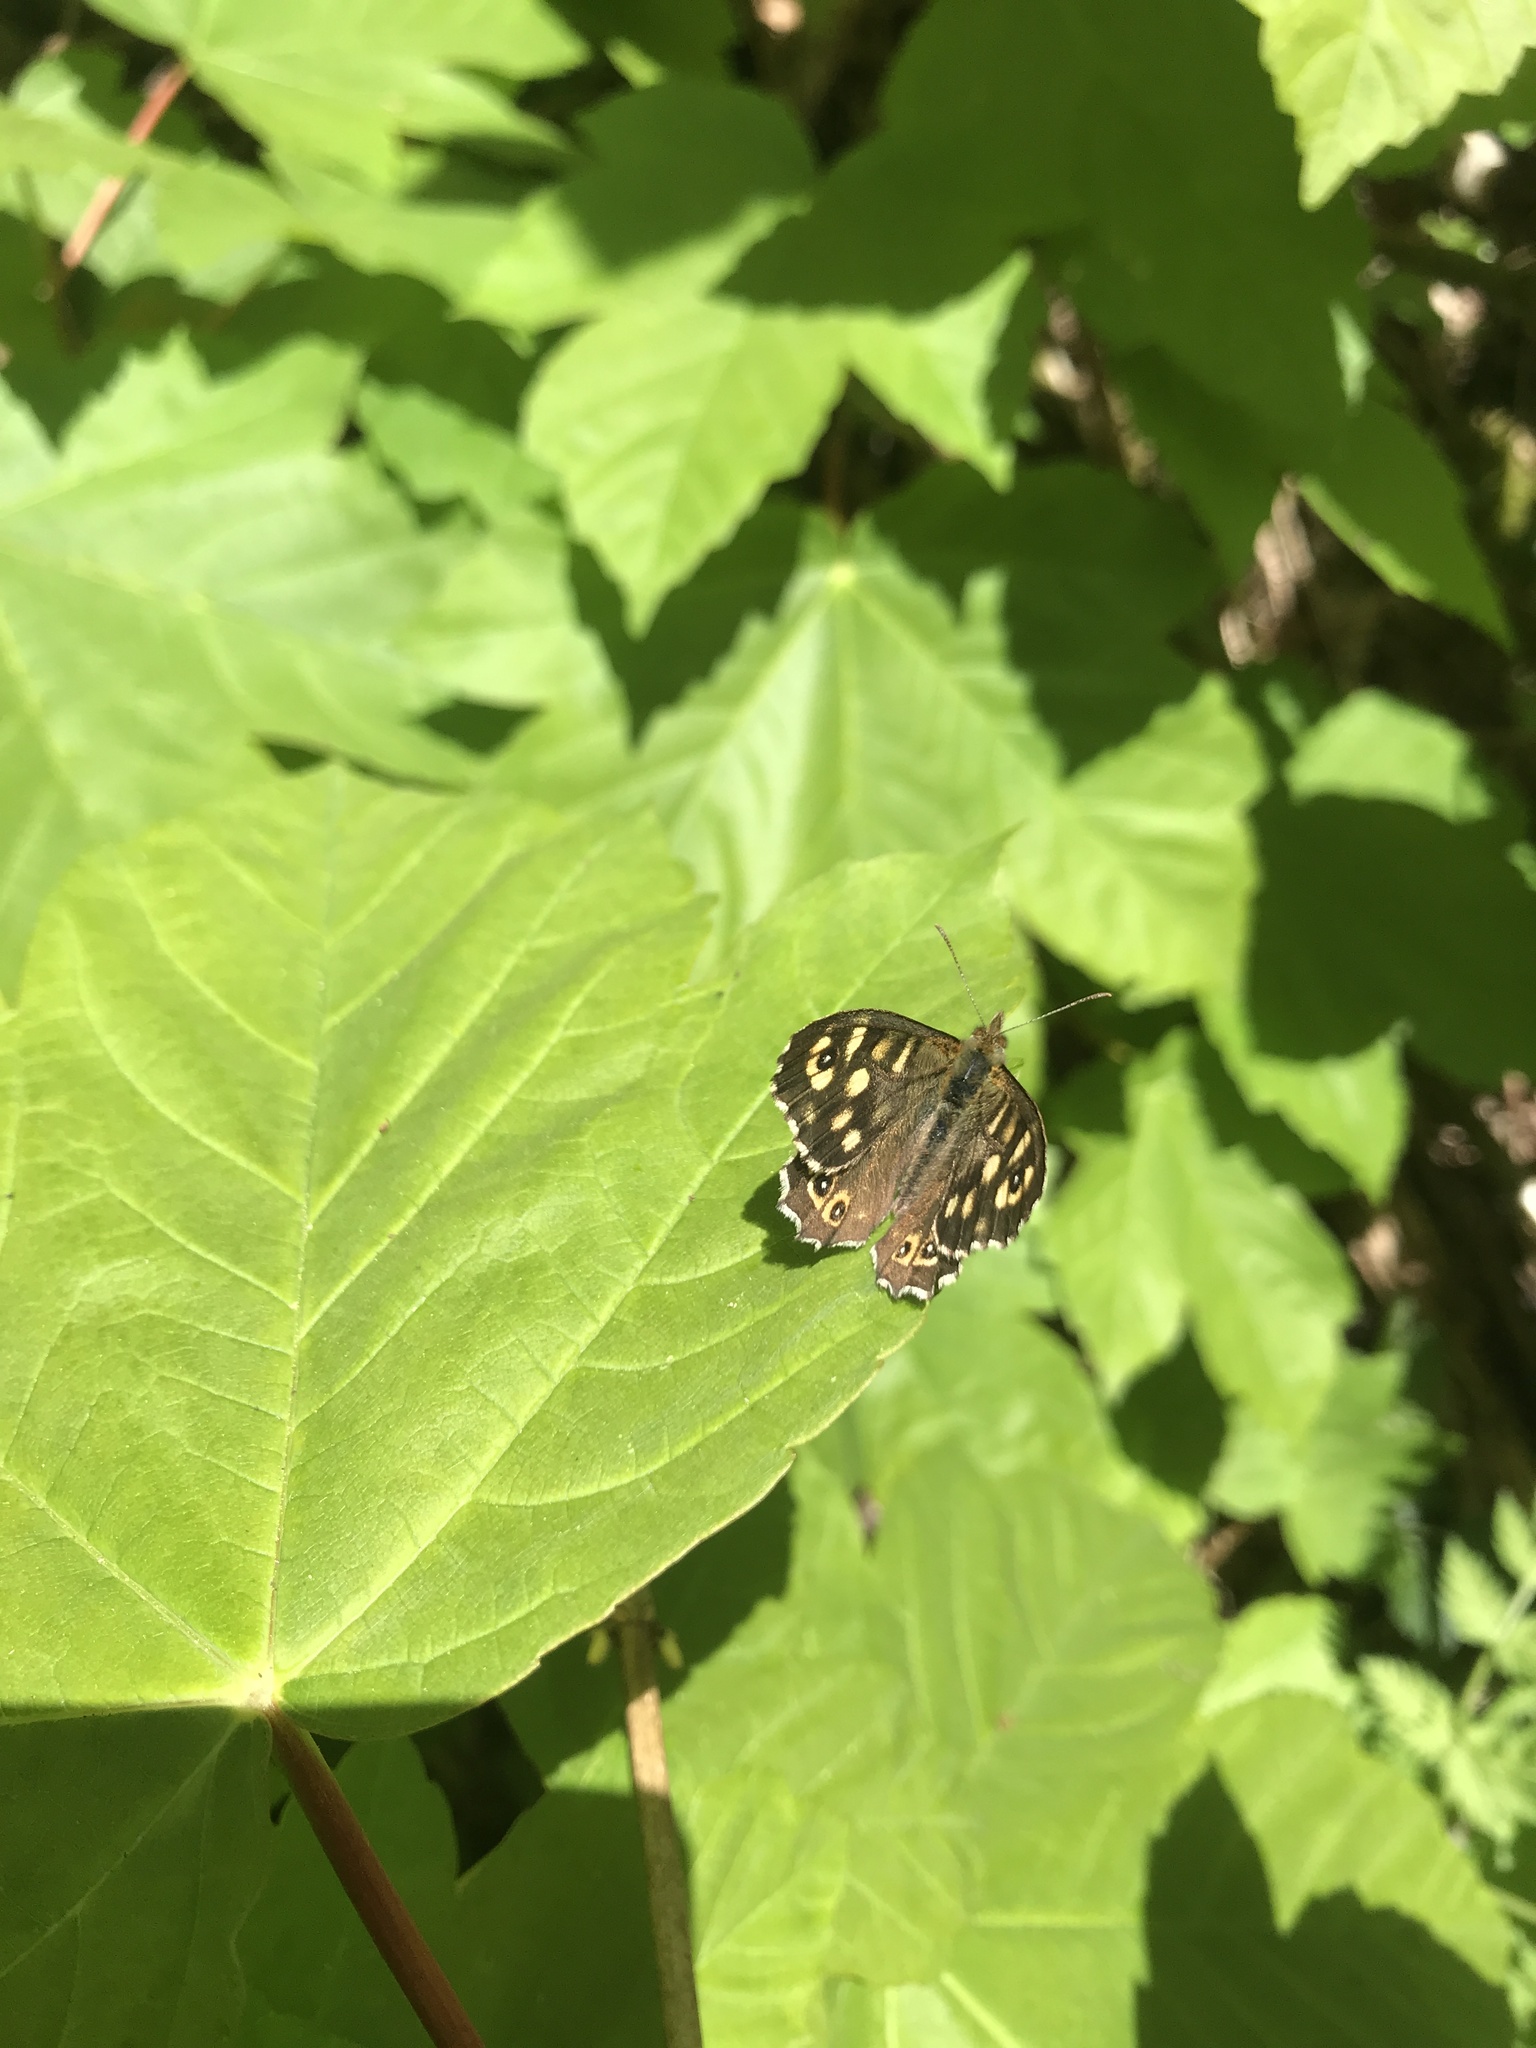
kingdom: Animalia
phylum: Arthropoda
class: Insecta
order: Lepidoptera
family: Nymphalidae
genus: Pararge
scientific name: Pararge aegeria
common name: Speckled wood
